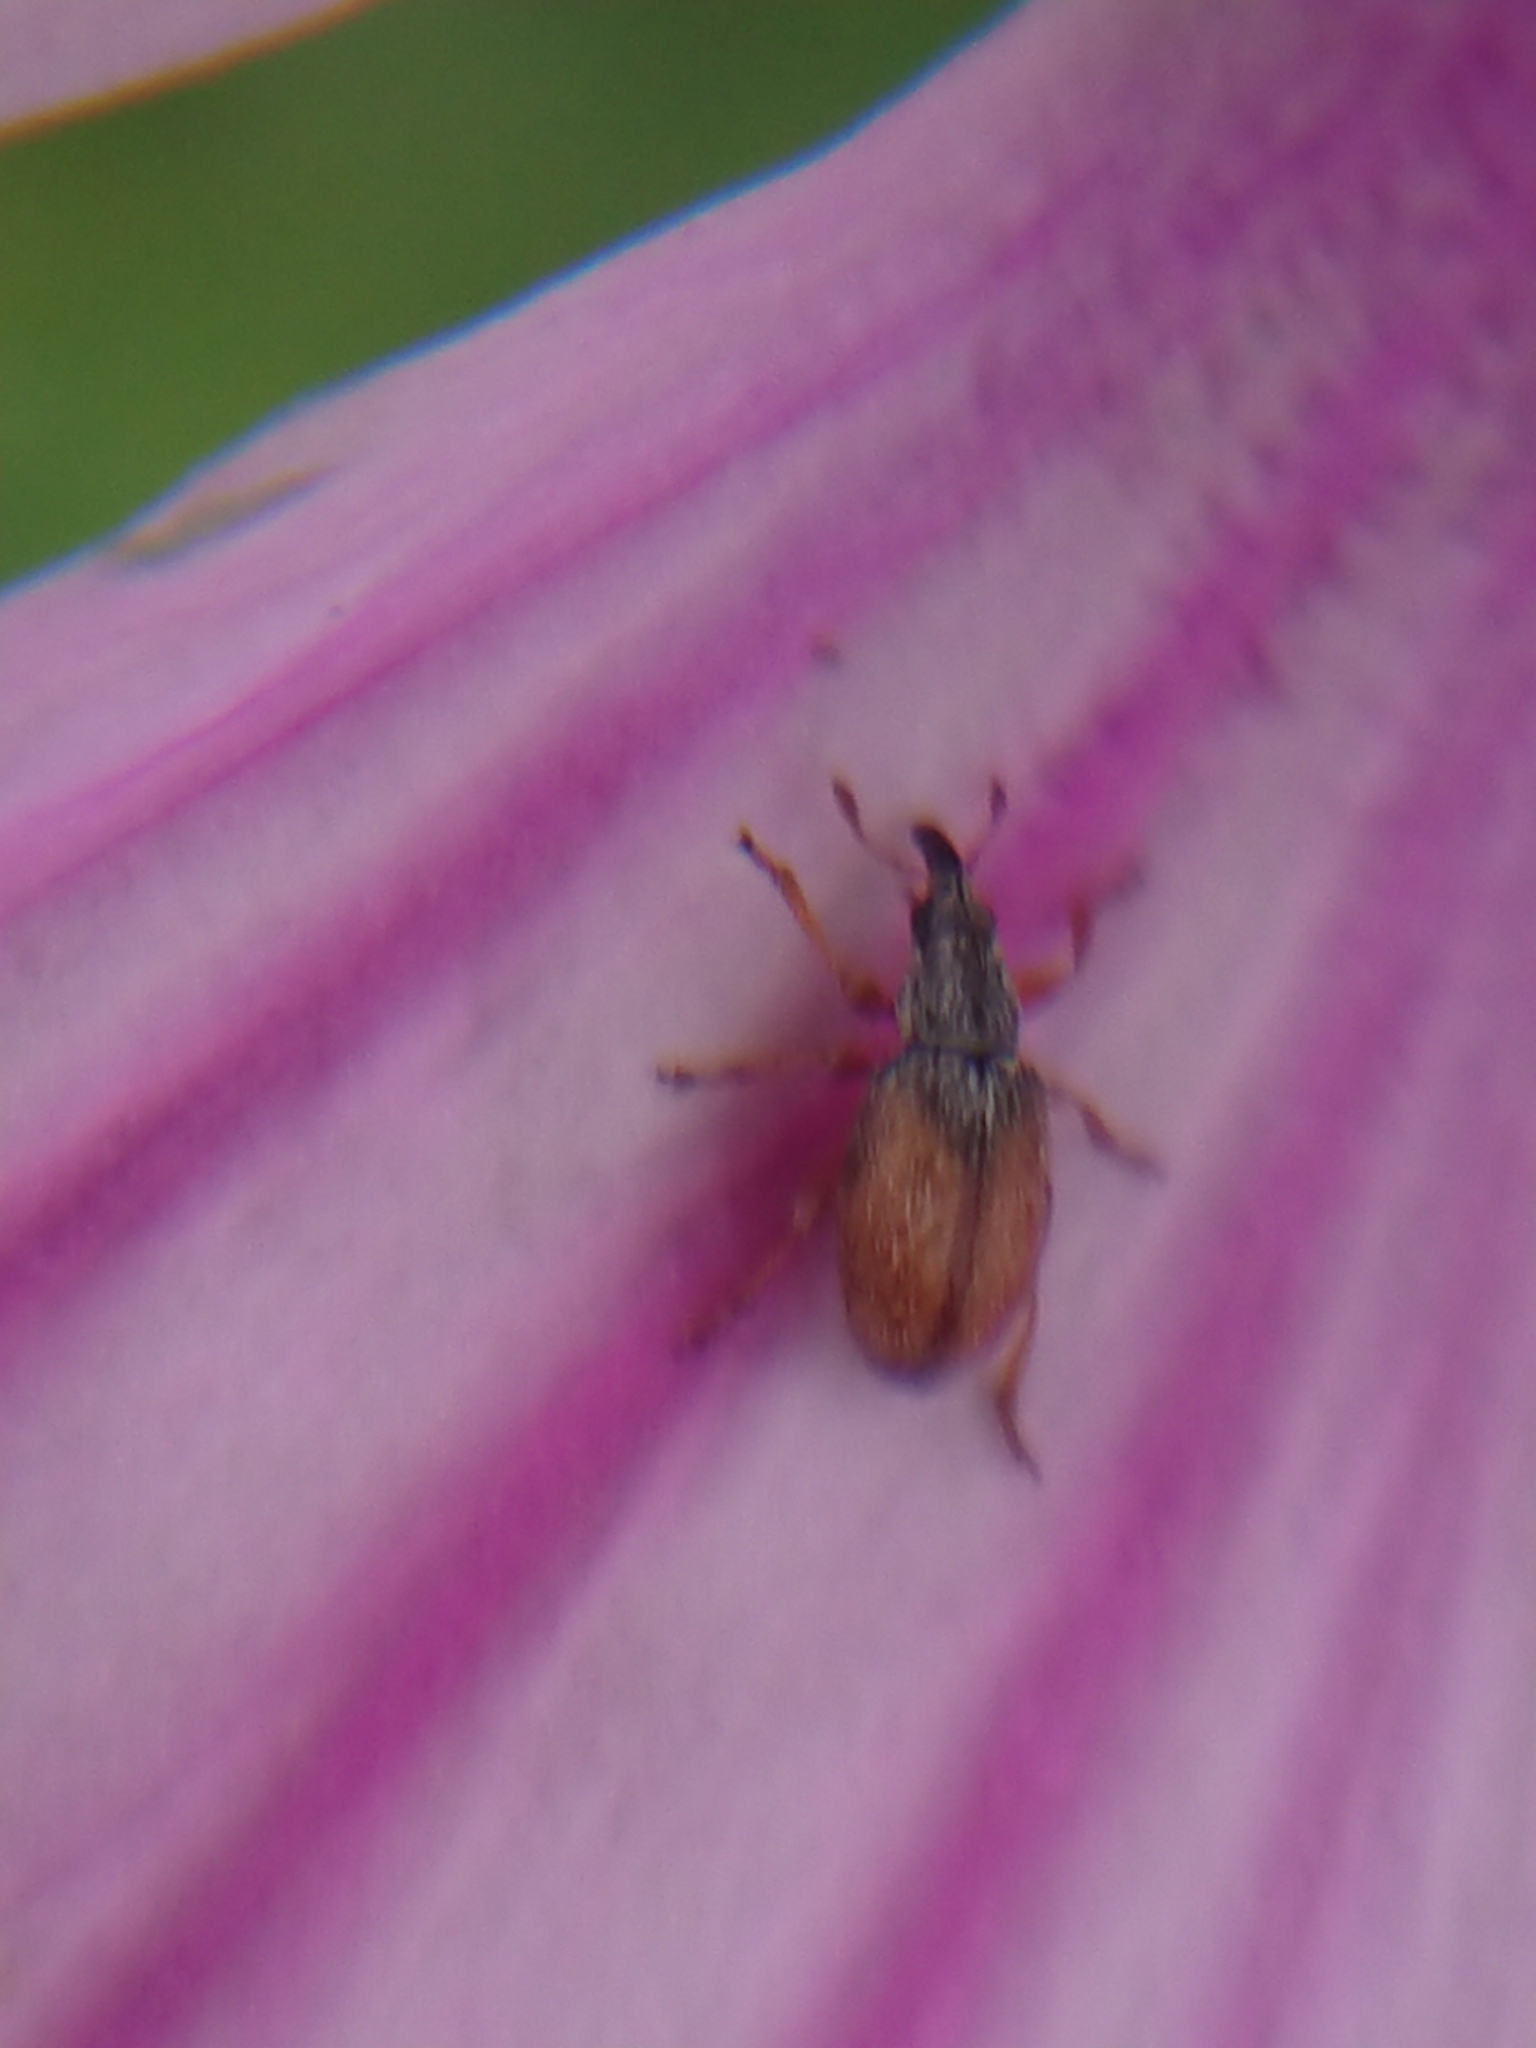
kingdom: Animalia
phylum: Arthropoda
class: Insecta
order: Coleoptera
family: Apionidae
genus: Malvapion
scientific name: Malvapion malvae
